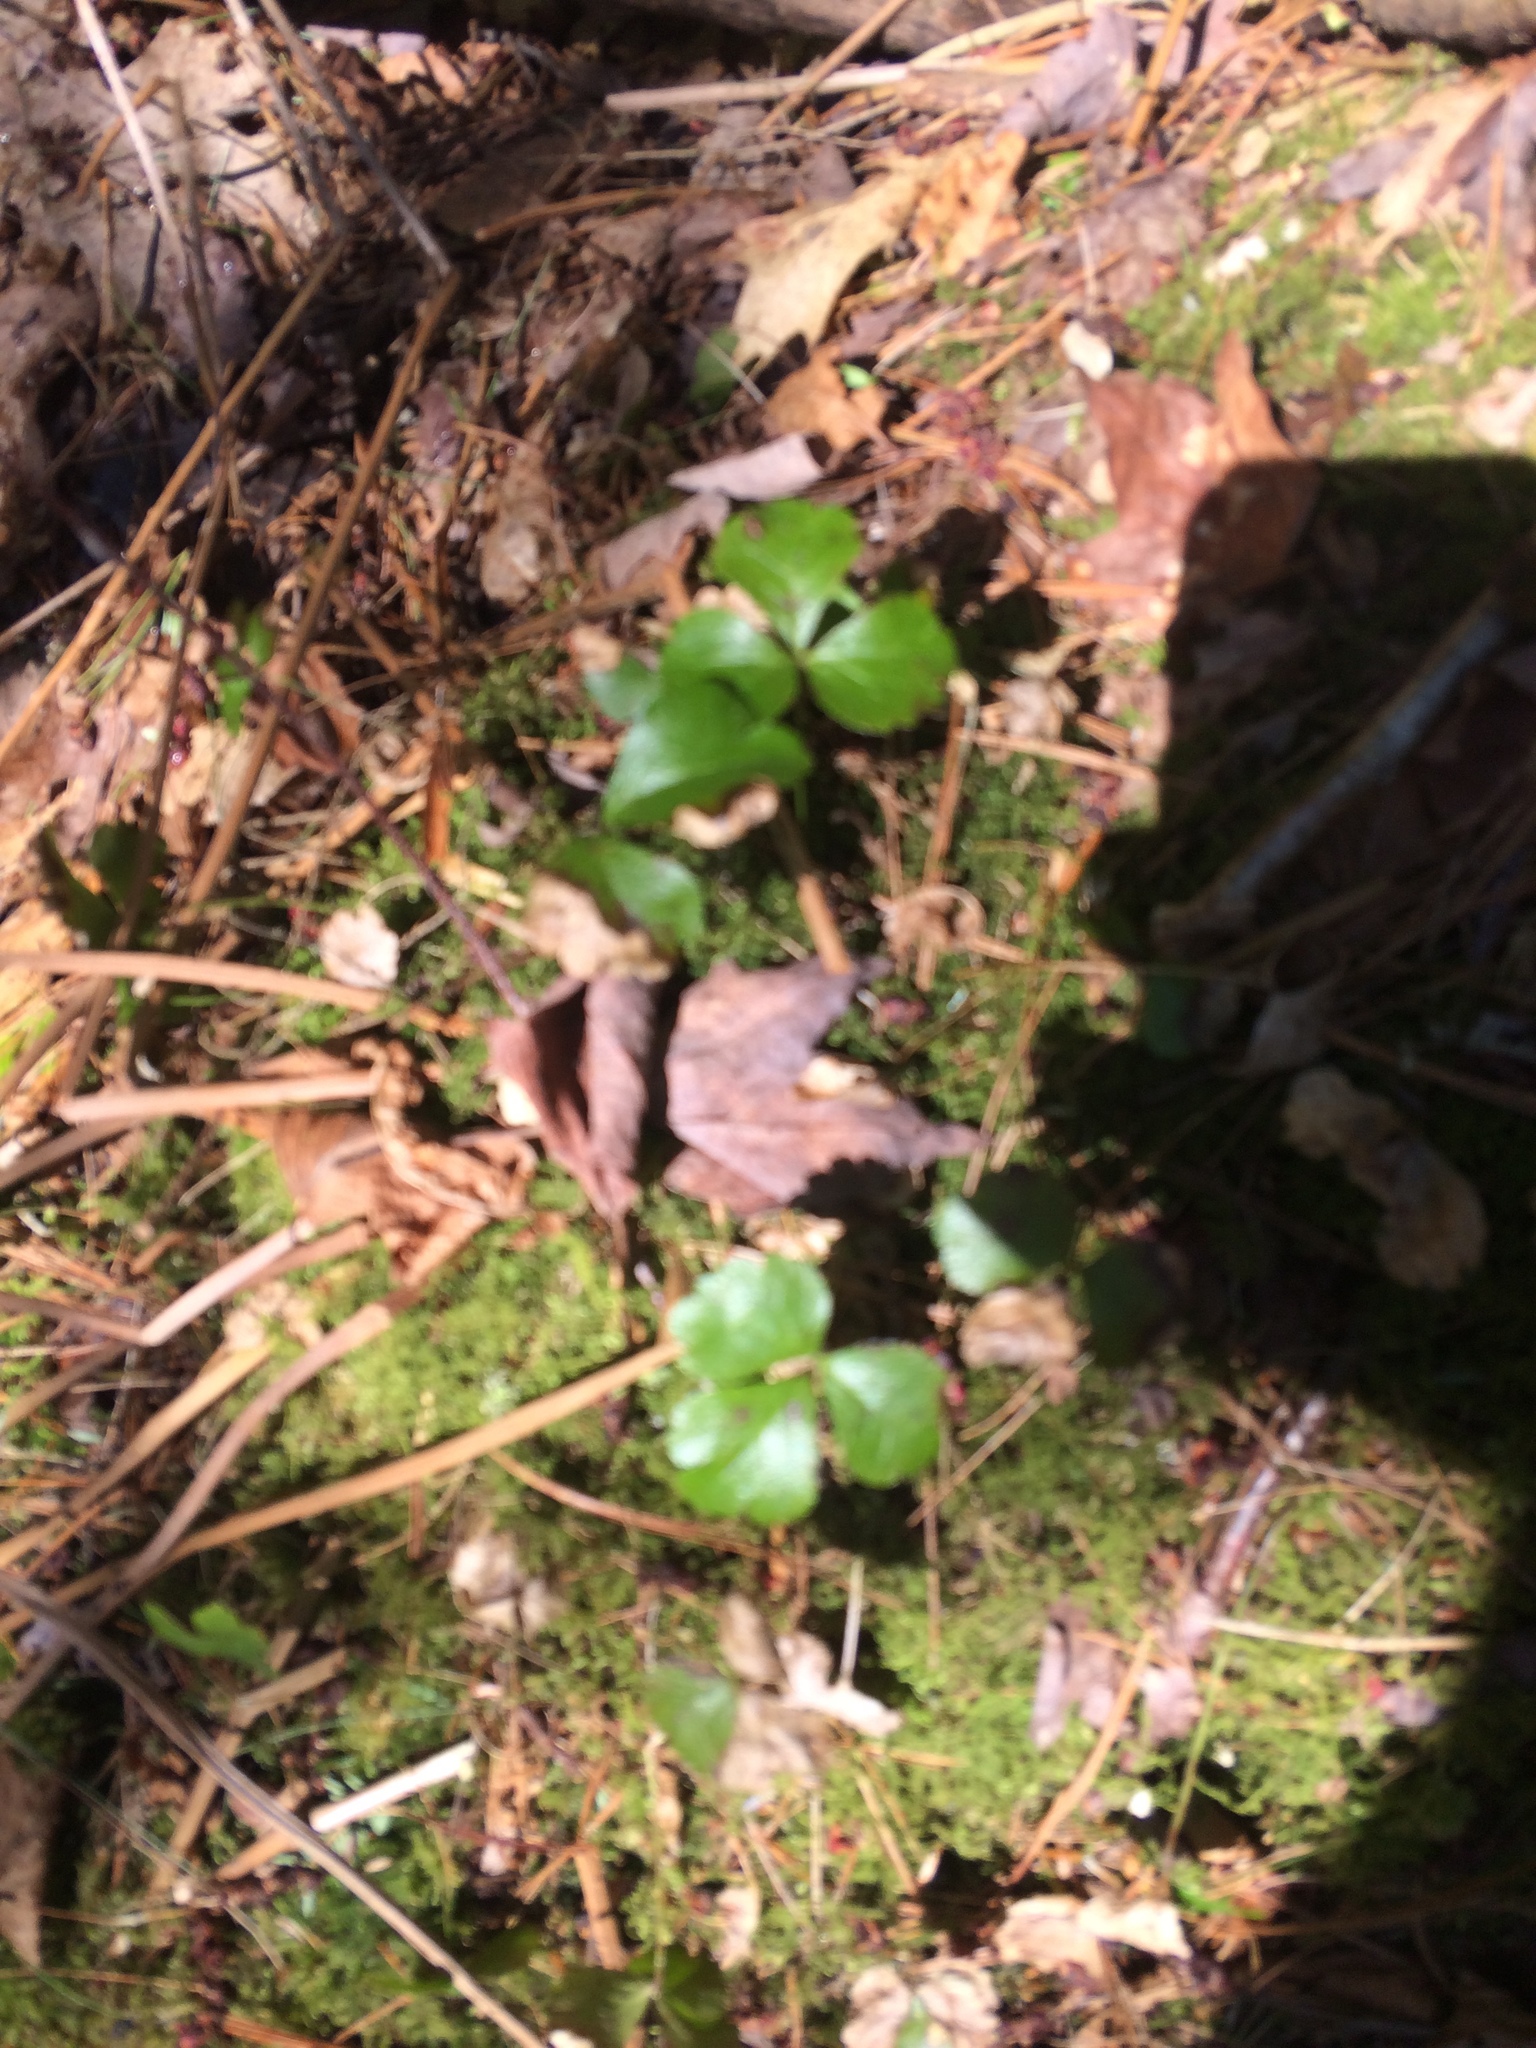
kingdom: Plantae
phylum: Tracheophyta
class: Magnoliopsida
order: Ranunculales
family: Ranunculaceae
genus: Coptis
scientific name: Coptis trifolia
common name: Canker-root
